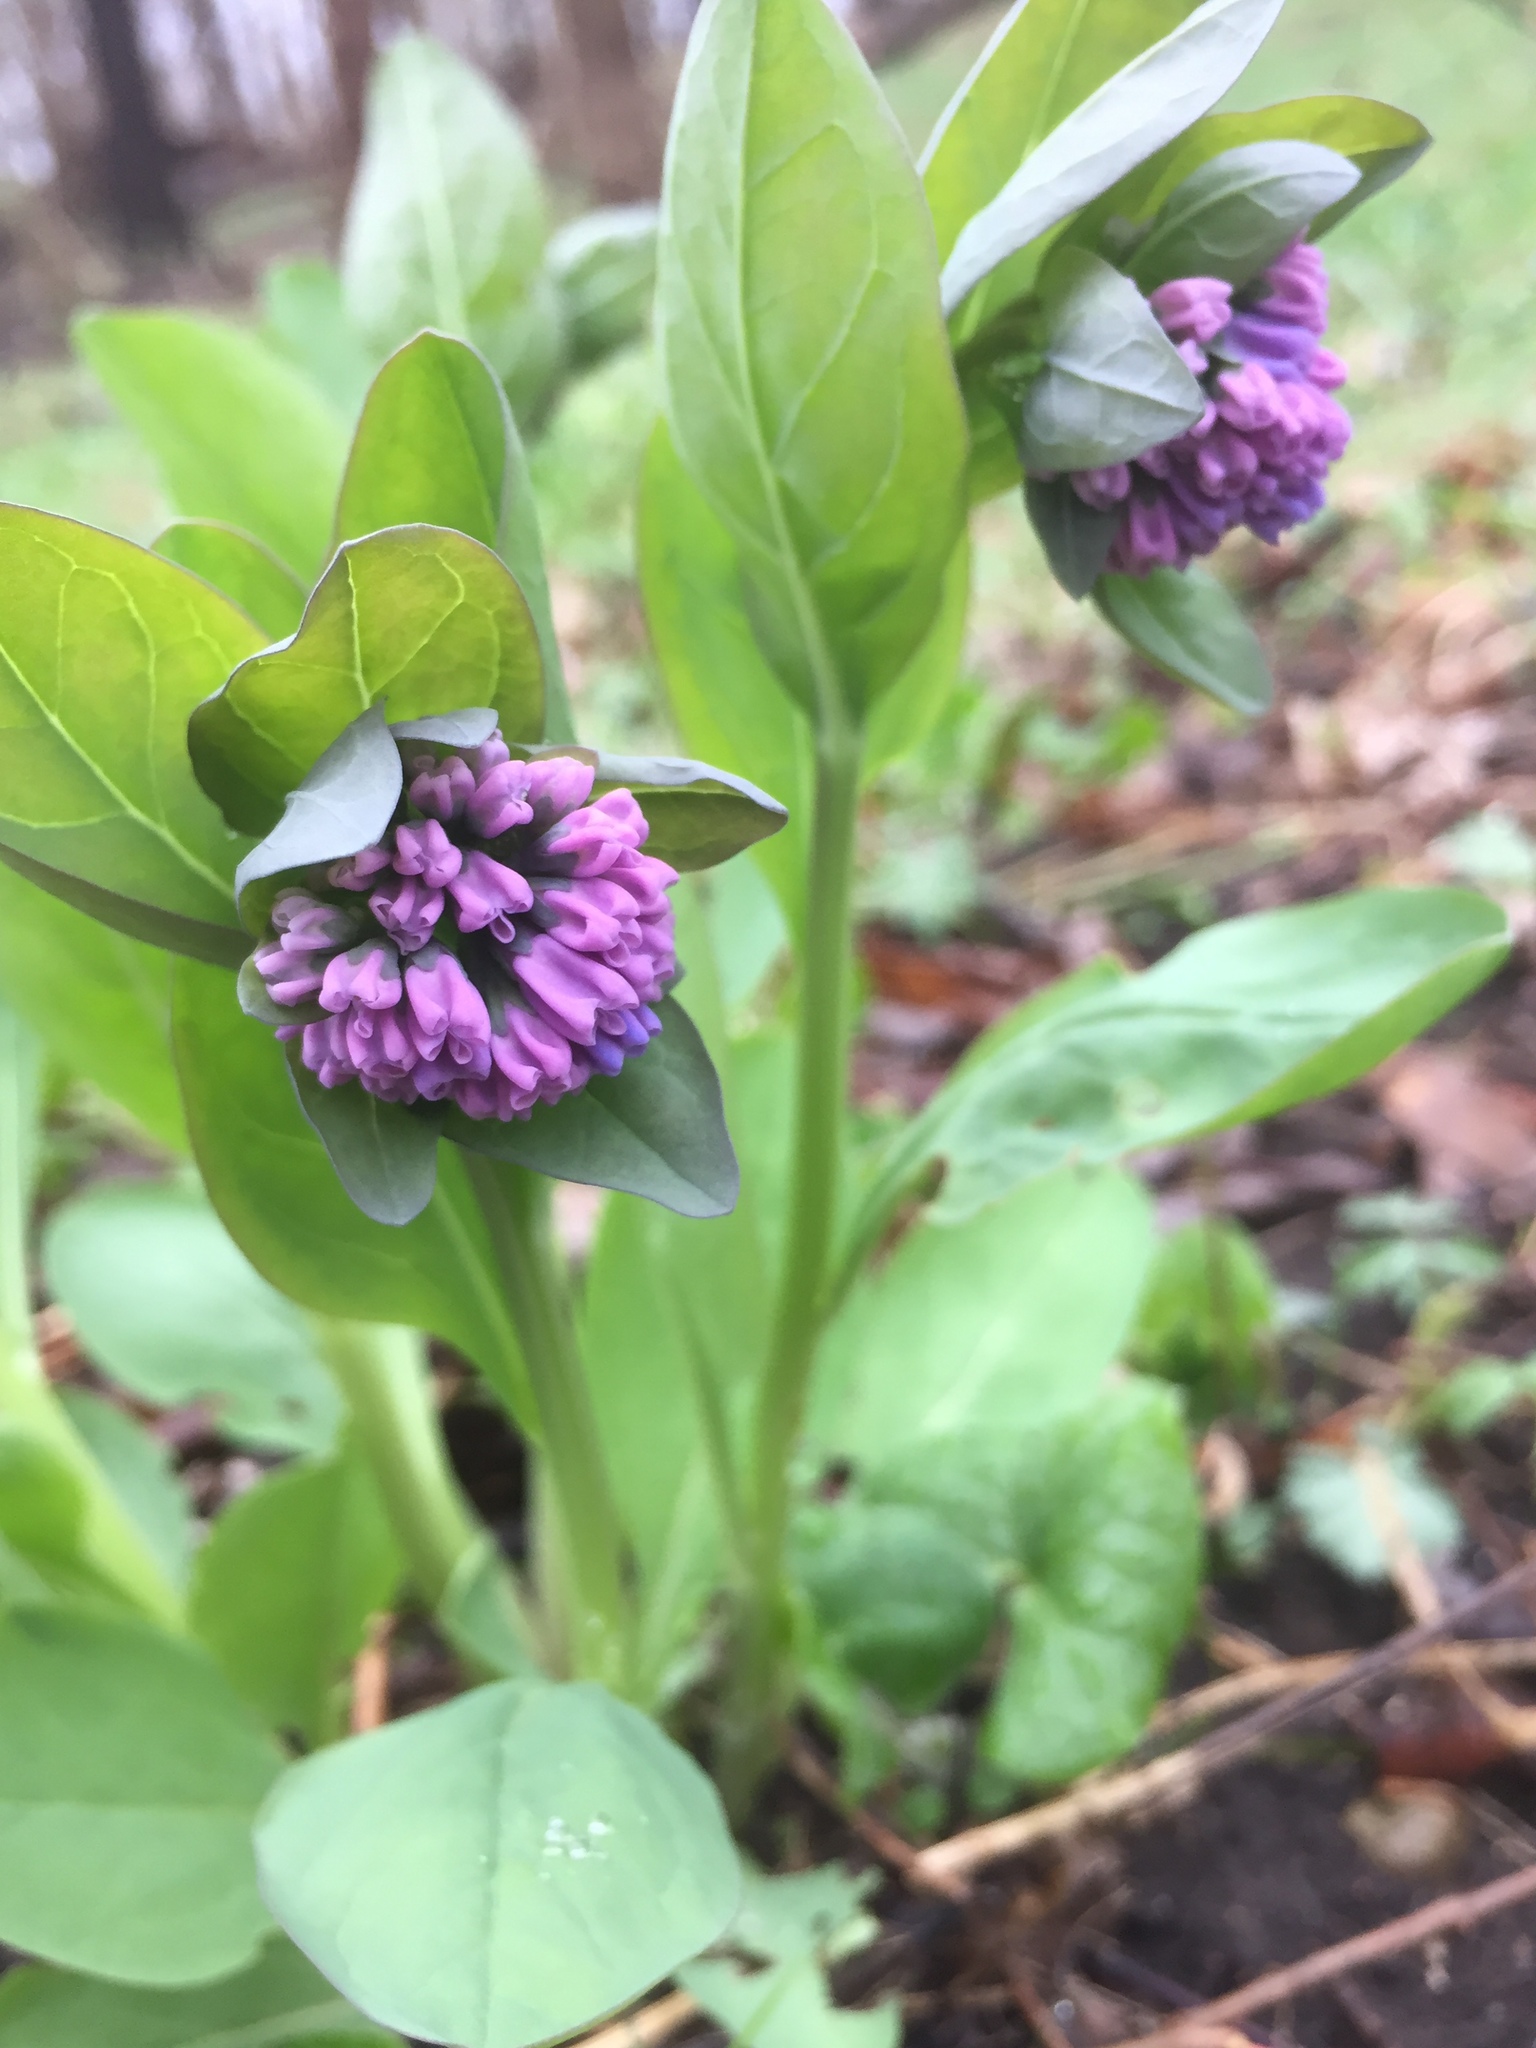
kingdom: Plantae
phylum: Tracheophyta
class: Magnoliopsida
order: Boraginales
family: Boraginaceae
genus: Mertensia
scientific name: Mertensia virginica
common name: Virginia bluebells
